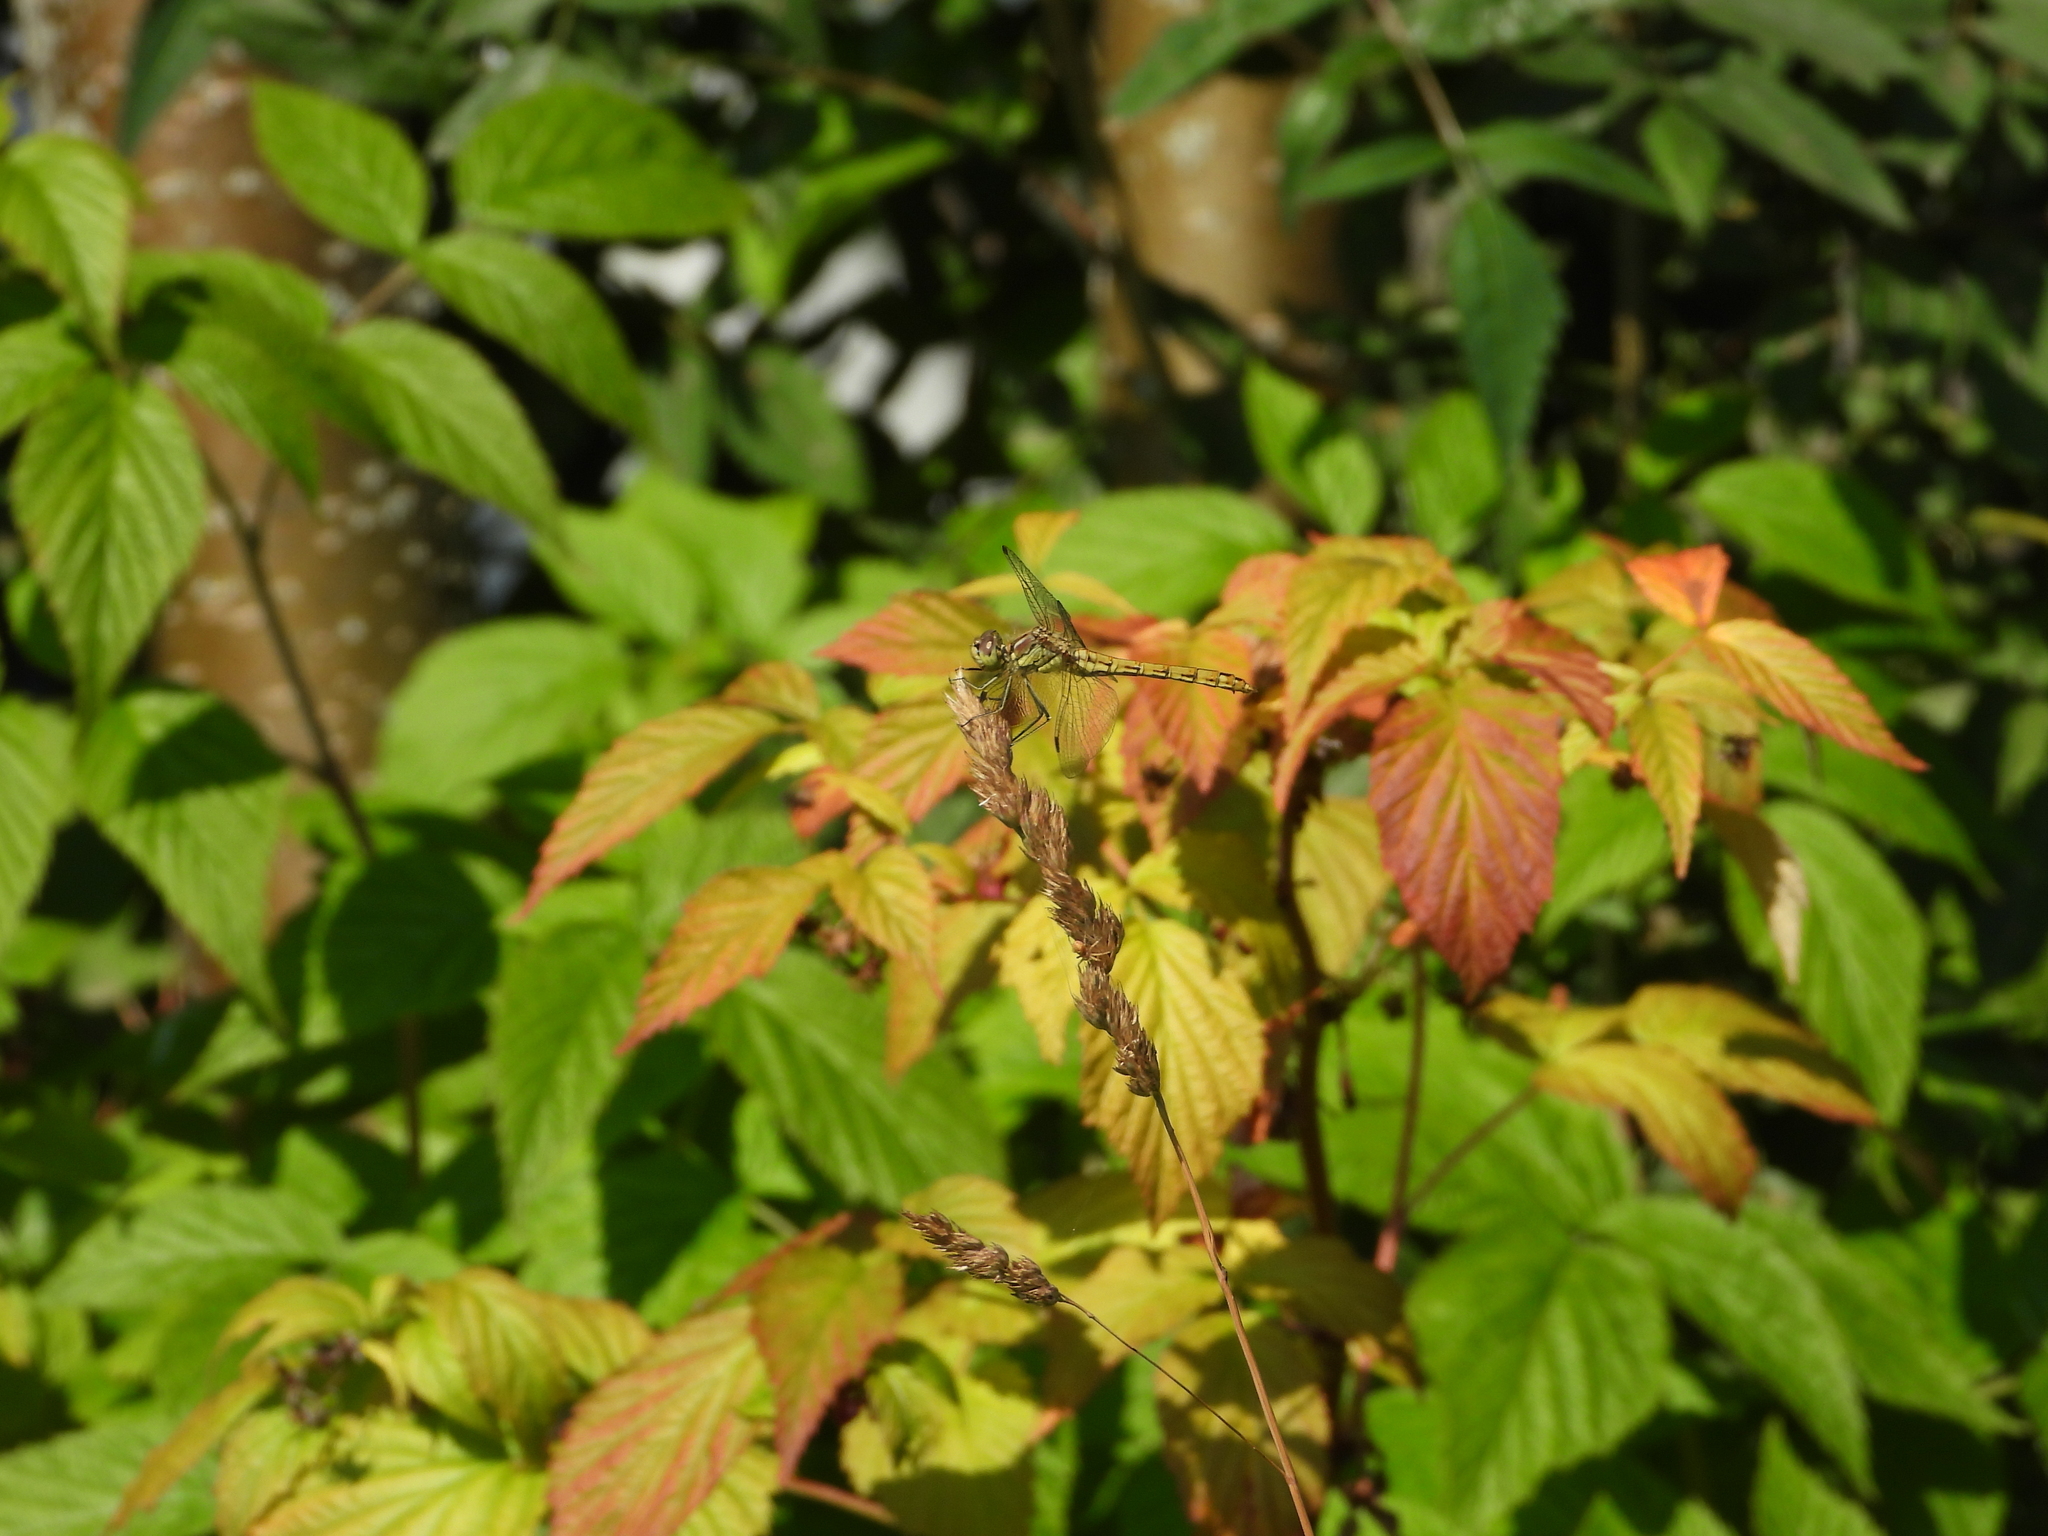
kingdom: Animalia
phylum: Arthropoda
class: Insecta
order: Odonata
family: Libellulidae
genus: Sympetrum
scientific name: Sympetrum vulgatum
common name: Vagrant darter
